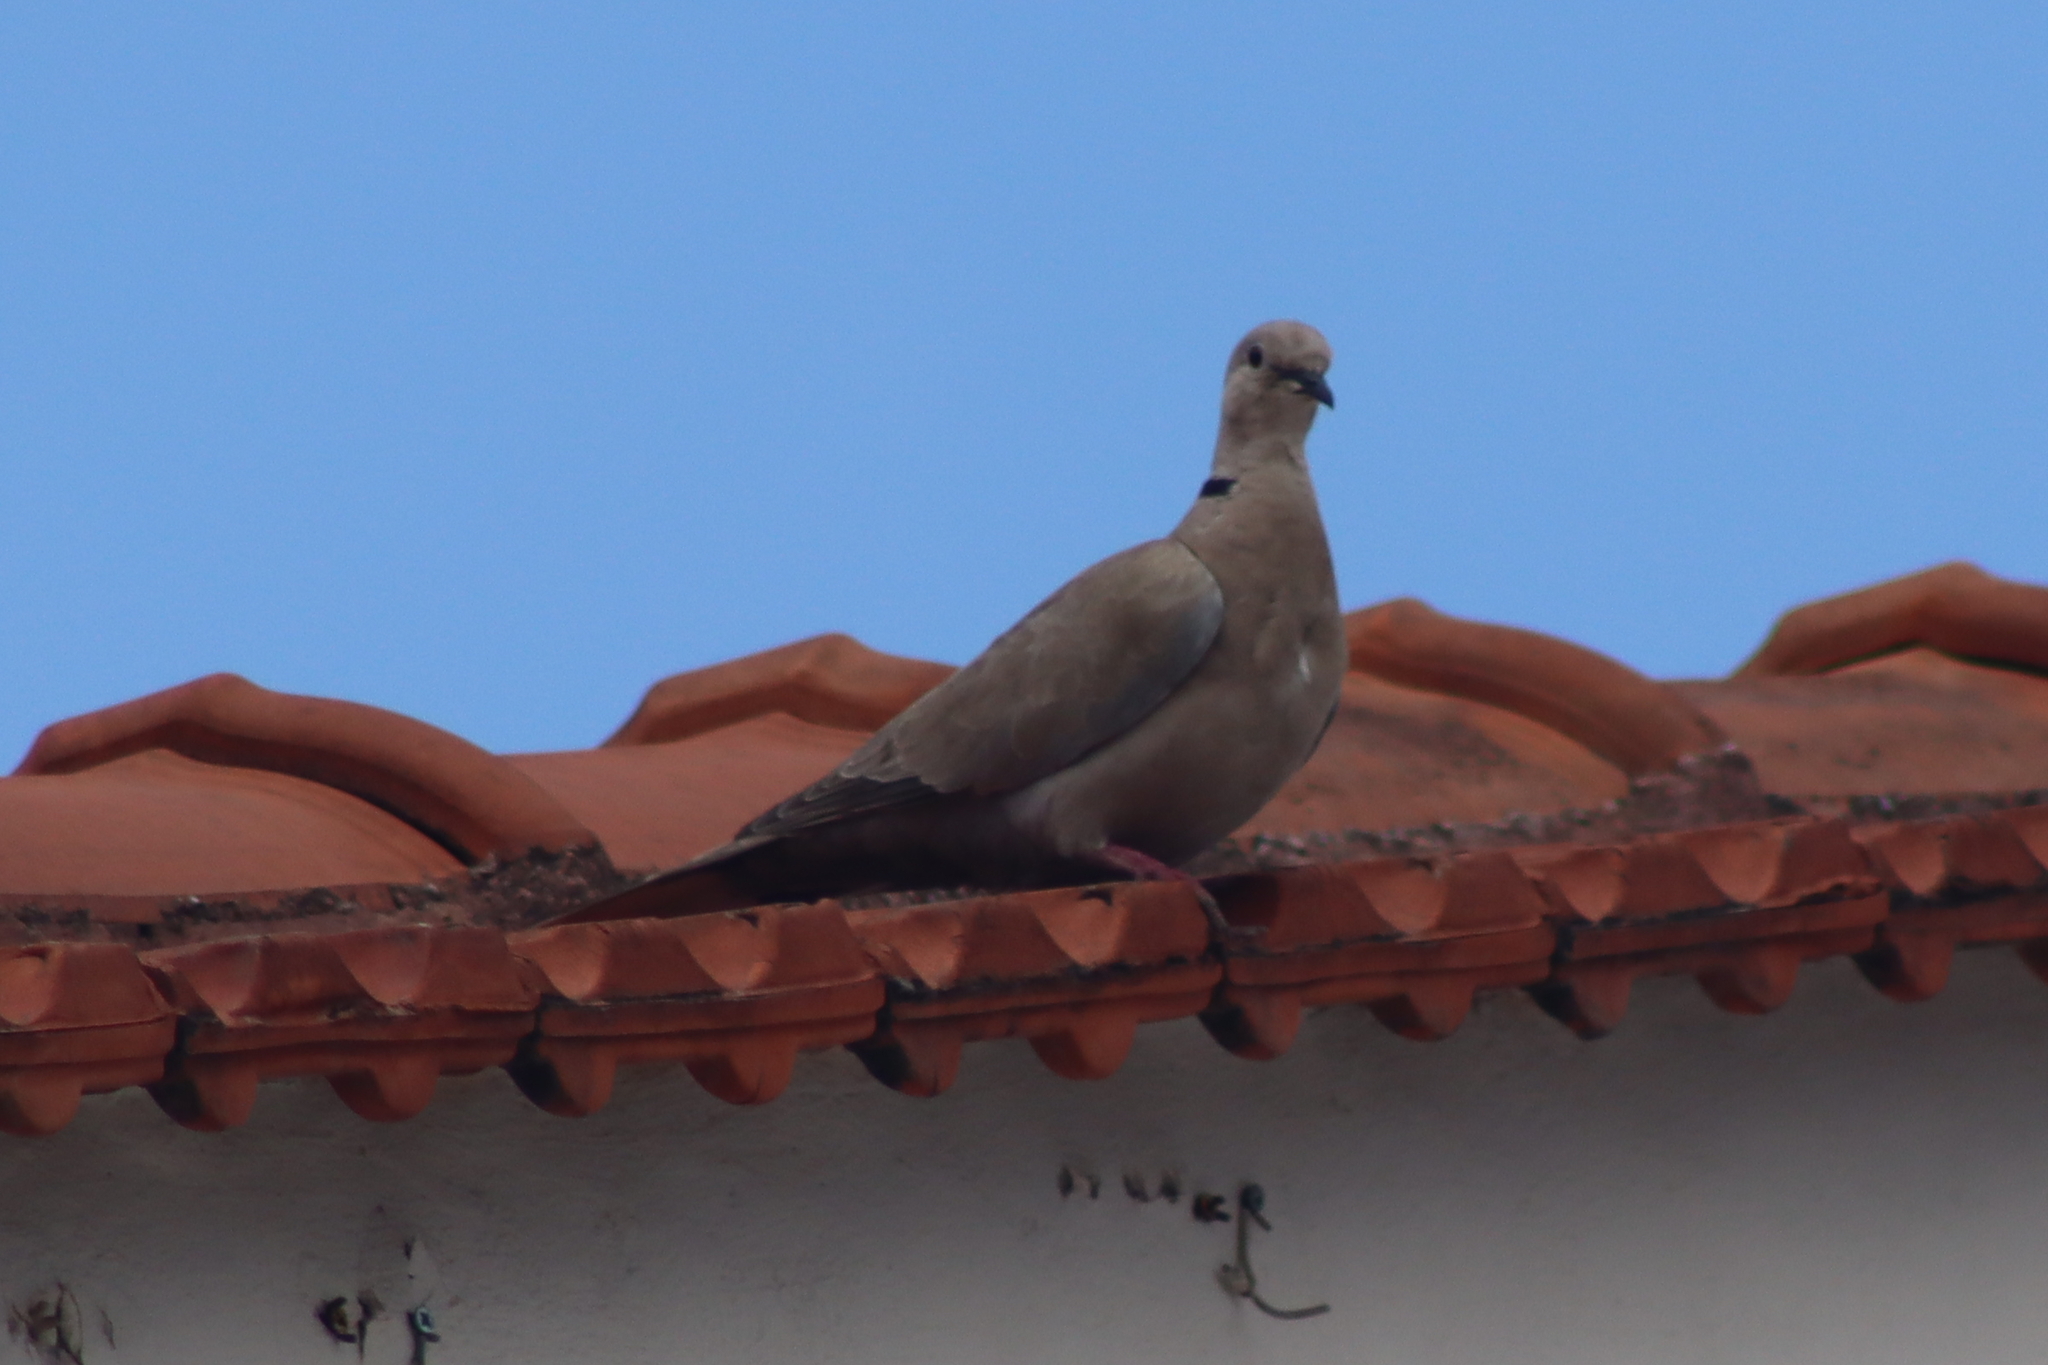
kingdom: Animalia
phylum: Chordata
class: Aves
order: Columbiformes
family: Columbidae
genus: Streptopelia
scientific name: Streptopelia decaocto
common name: Eurasian collared dove
